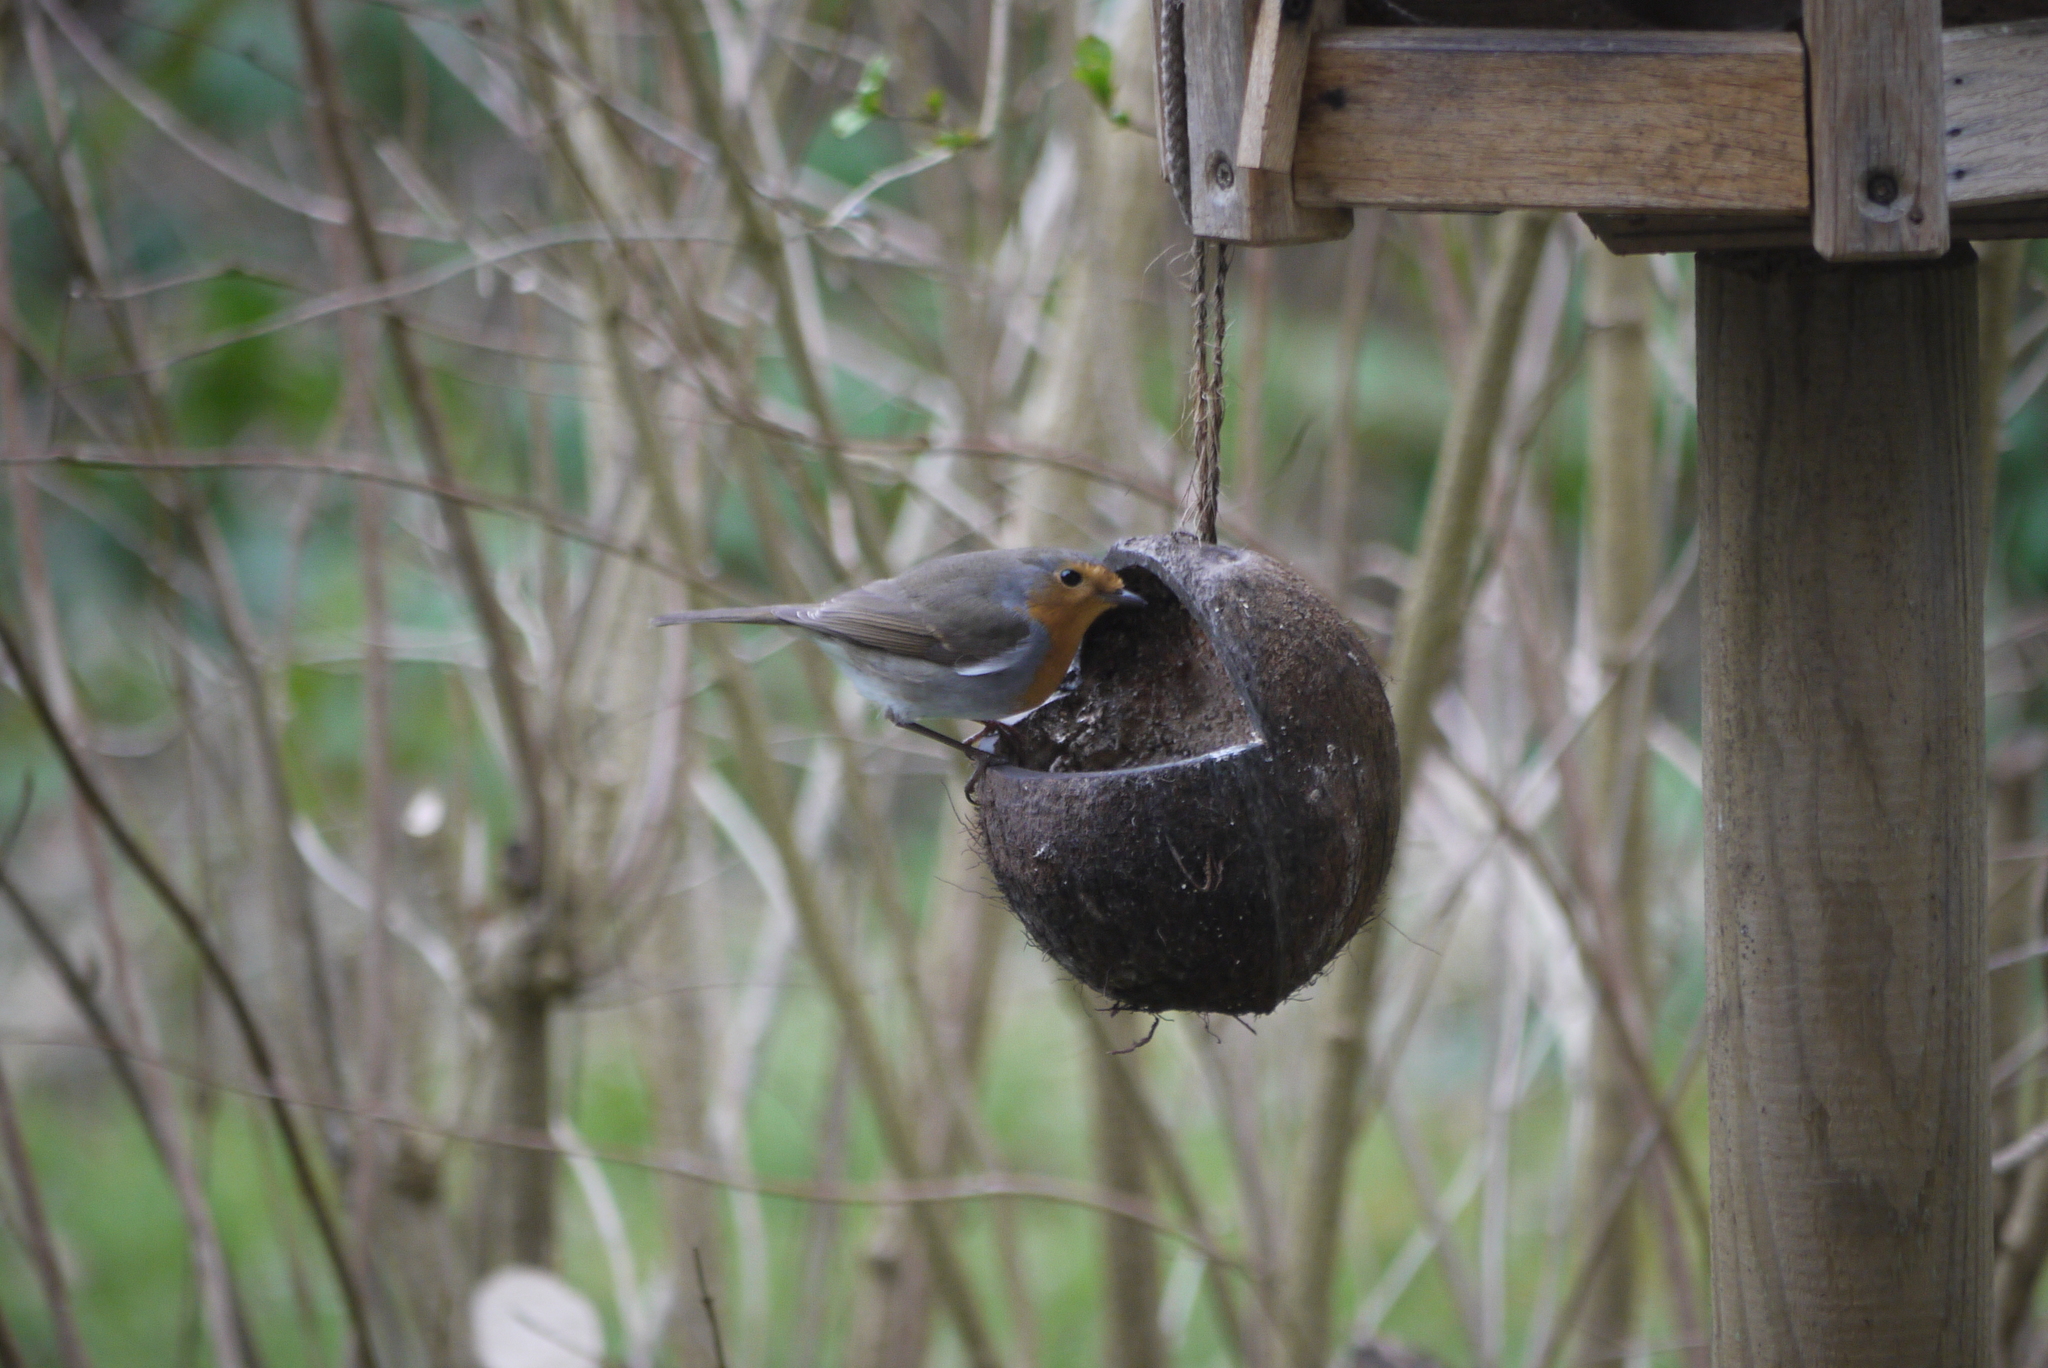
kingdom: Animalia
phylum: Chordata
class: Aves
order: Passeriformes
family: Muscicapidae
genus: Erithacus
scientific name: Erithacus rubecula
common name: European robin
